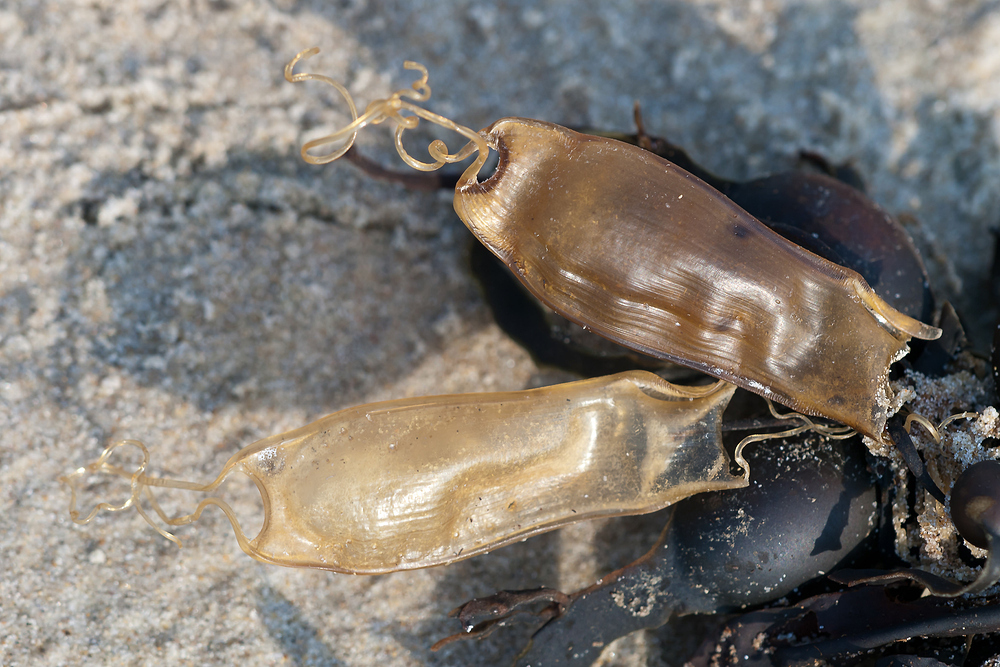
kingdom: Animalia
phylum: Chordata
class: Elasmobranchii
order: Carcharhiniformes
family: Scyliorhinidae
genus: Scyliorhinus
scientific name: Scyliorhinus canicula
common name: Lesser spotted dogfish
